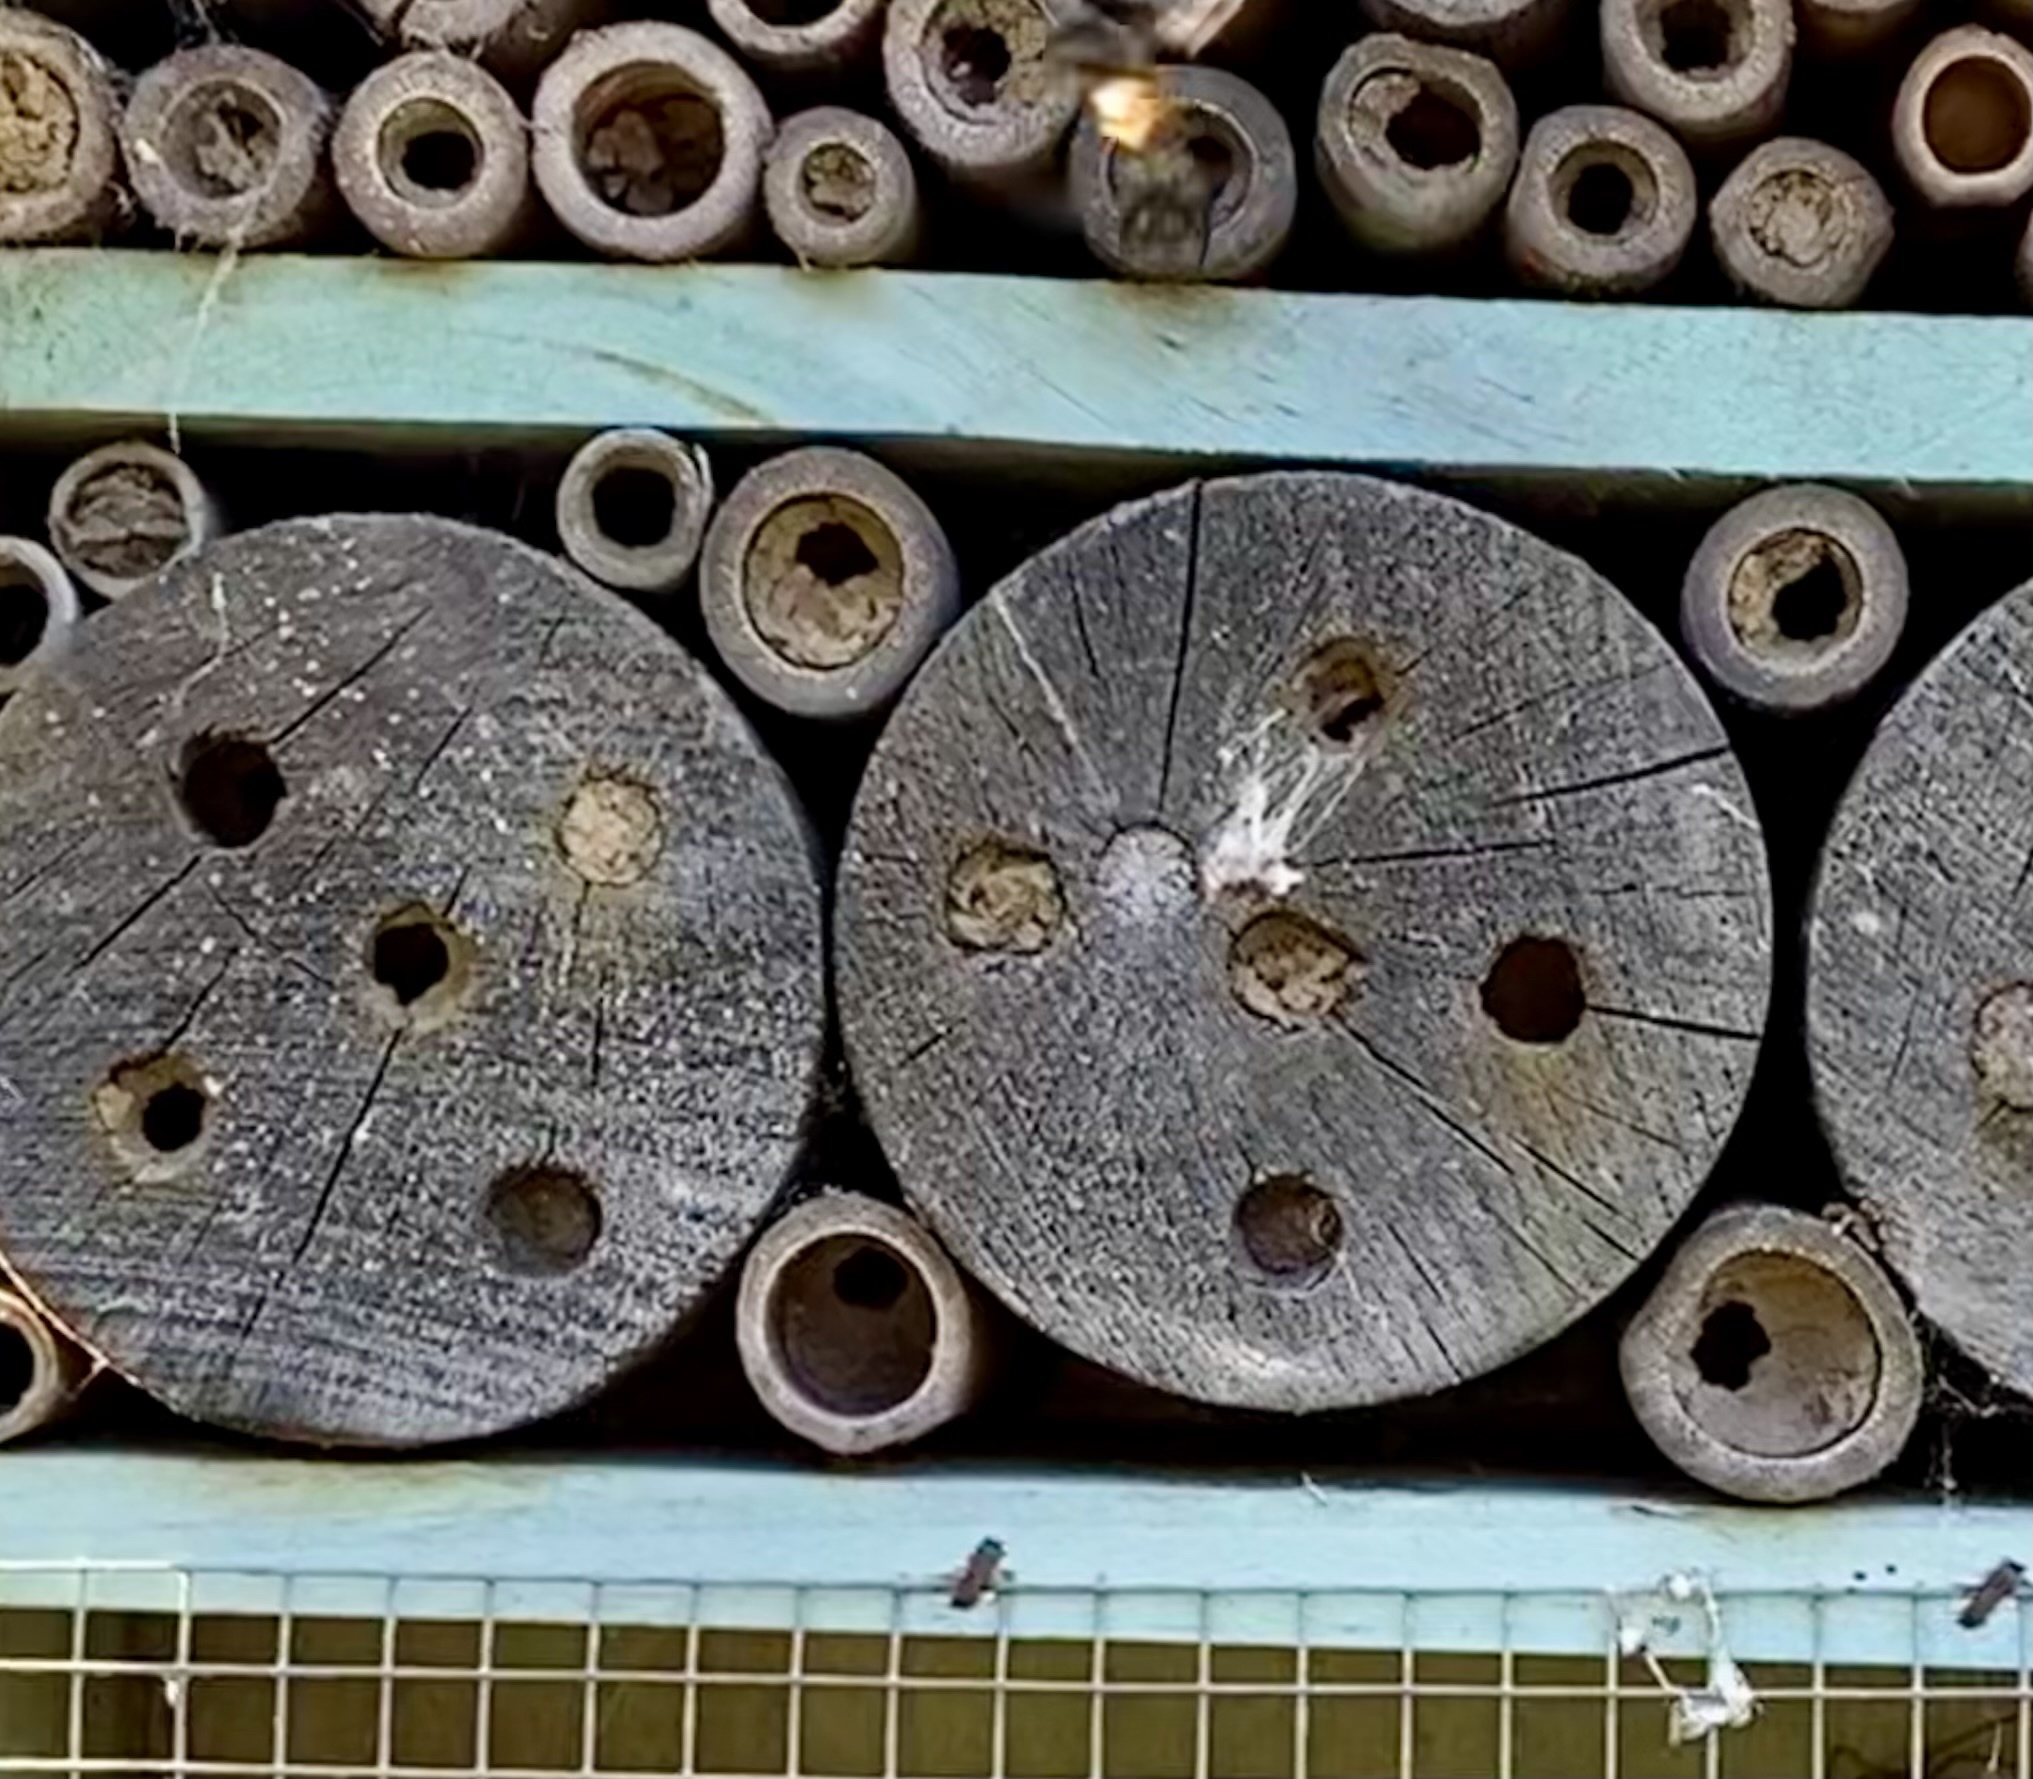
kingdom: Animalia
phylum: Arthropoda
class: Insecta
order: Hymenoptera
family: Megachilidae
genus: Osmia
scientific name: Osmia bicornis
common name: Red mason bee
